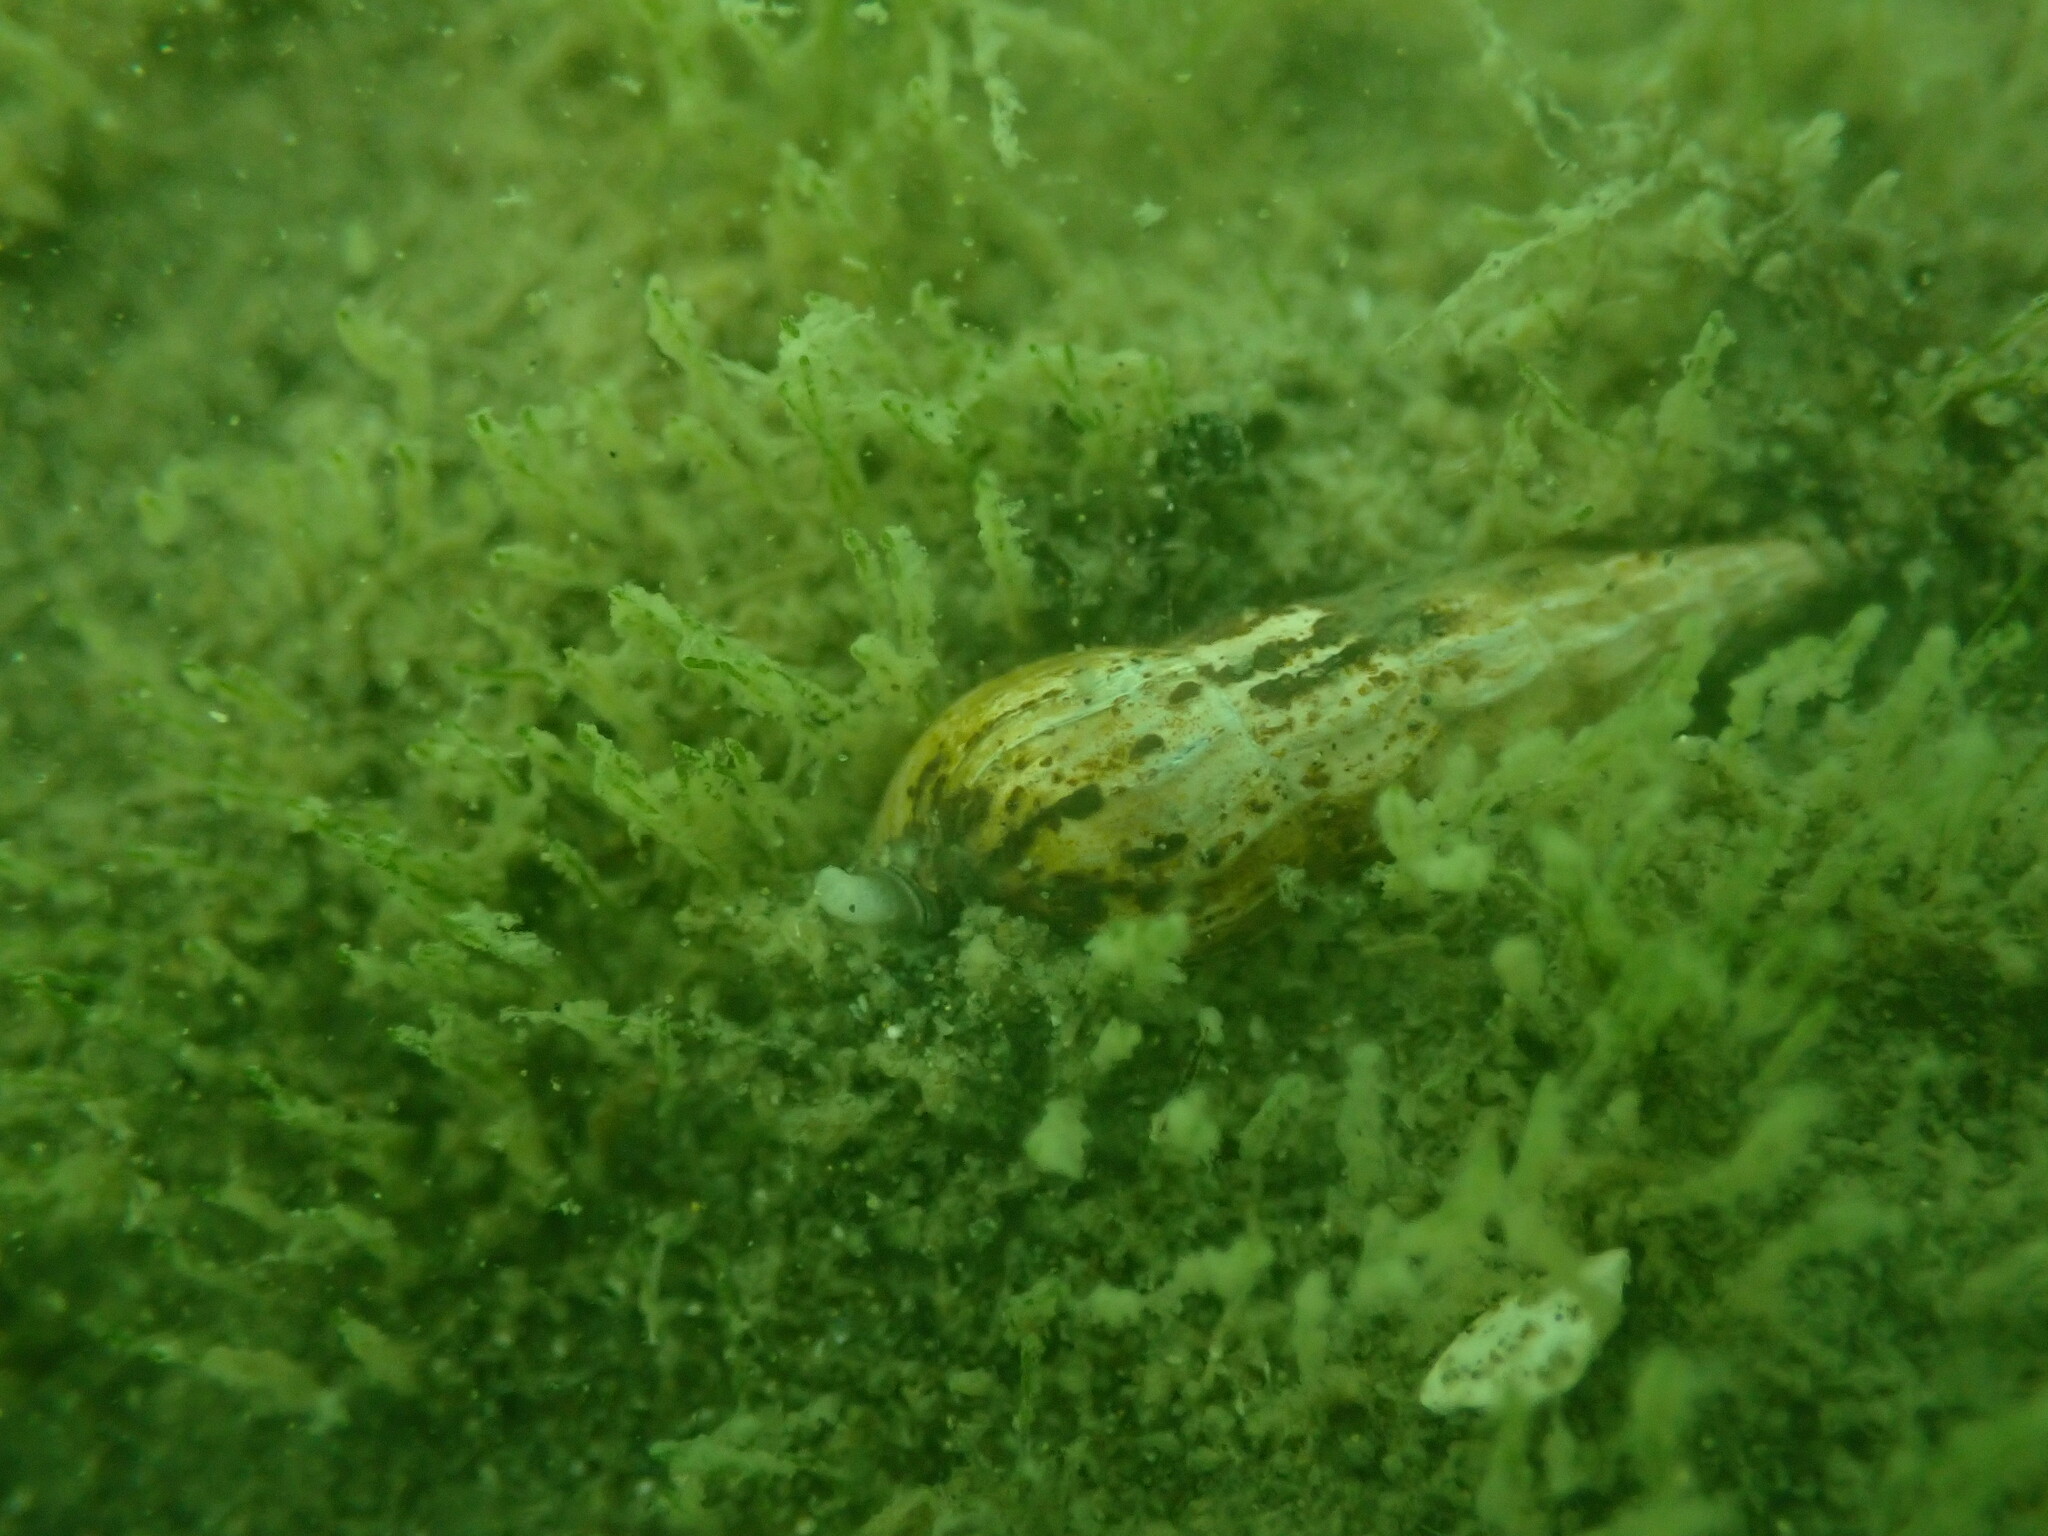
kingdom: Animalia
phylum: Mollusca
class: Gastropoda
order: Neogastropoda
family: Terebridae
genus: Duplicaria
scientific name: Duplicaria tristis
